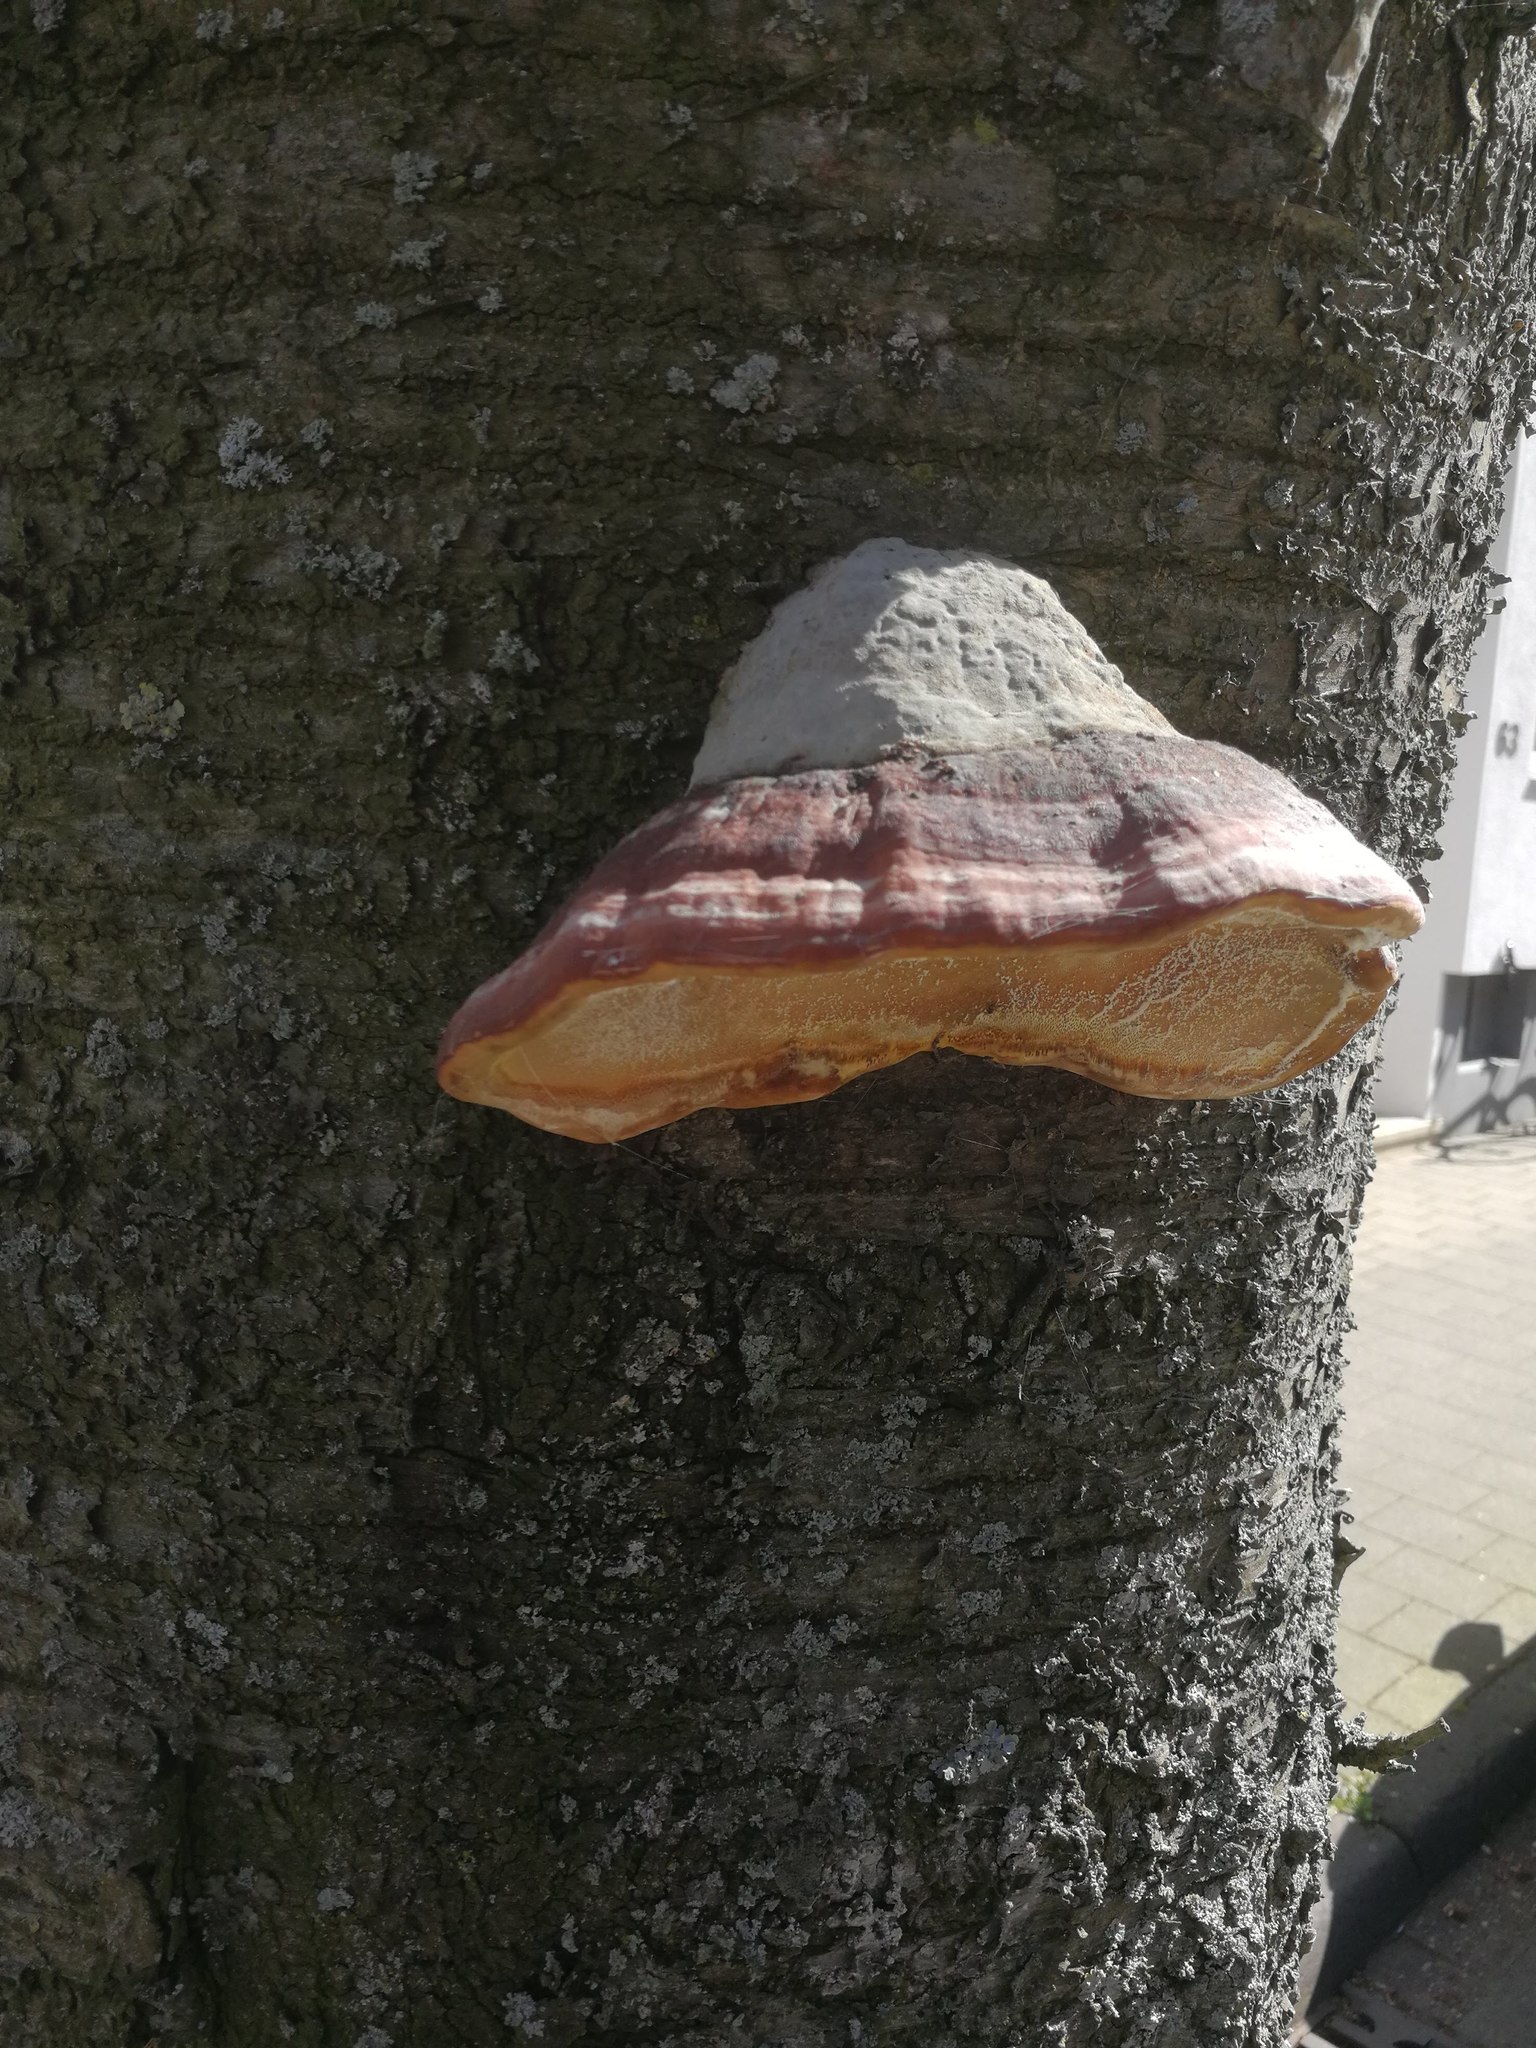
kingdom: Fungi
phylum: Basidiomycota
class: Agaricomycetes
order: Polyporales
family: Polyporaceae
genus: Fomes
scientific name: Fomes fomentarius
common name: Hoof fungus
